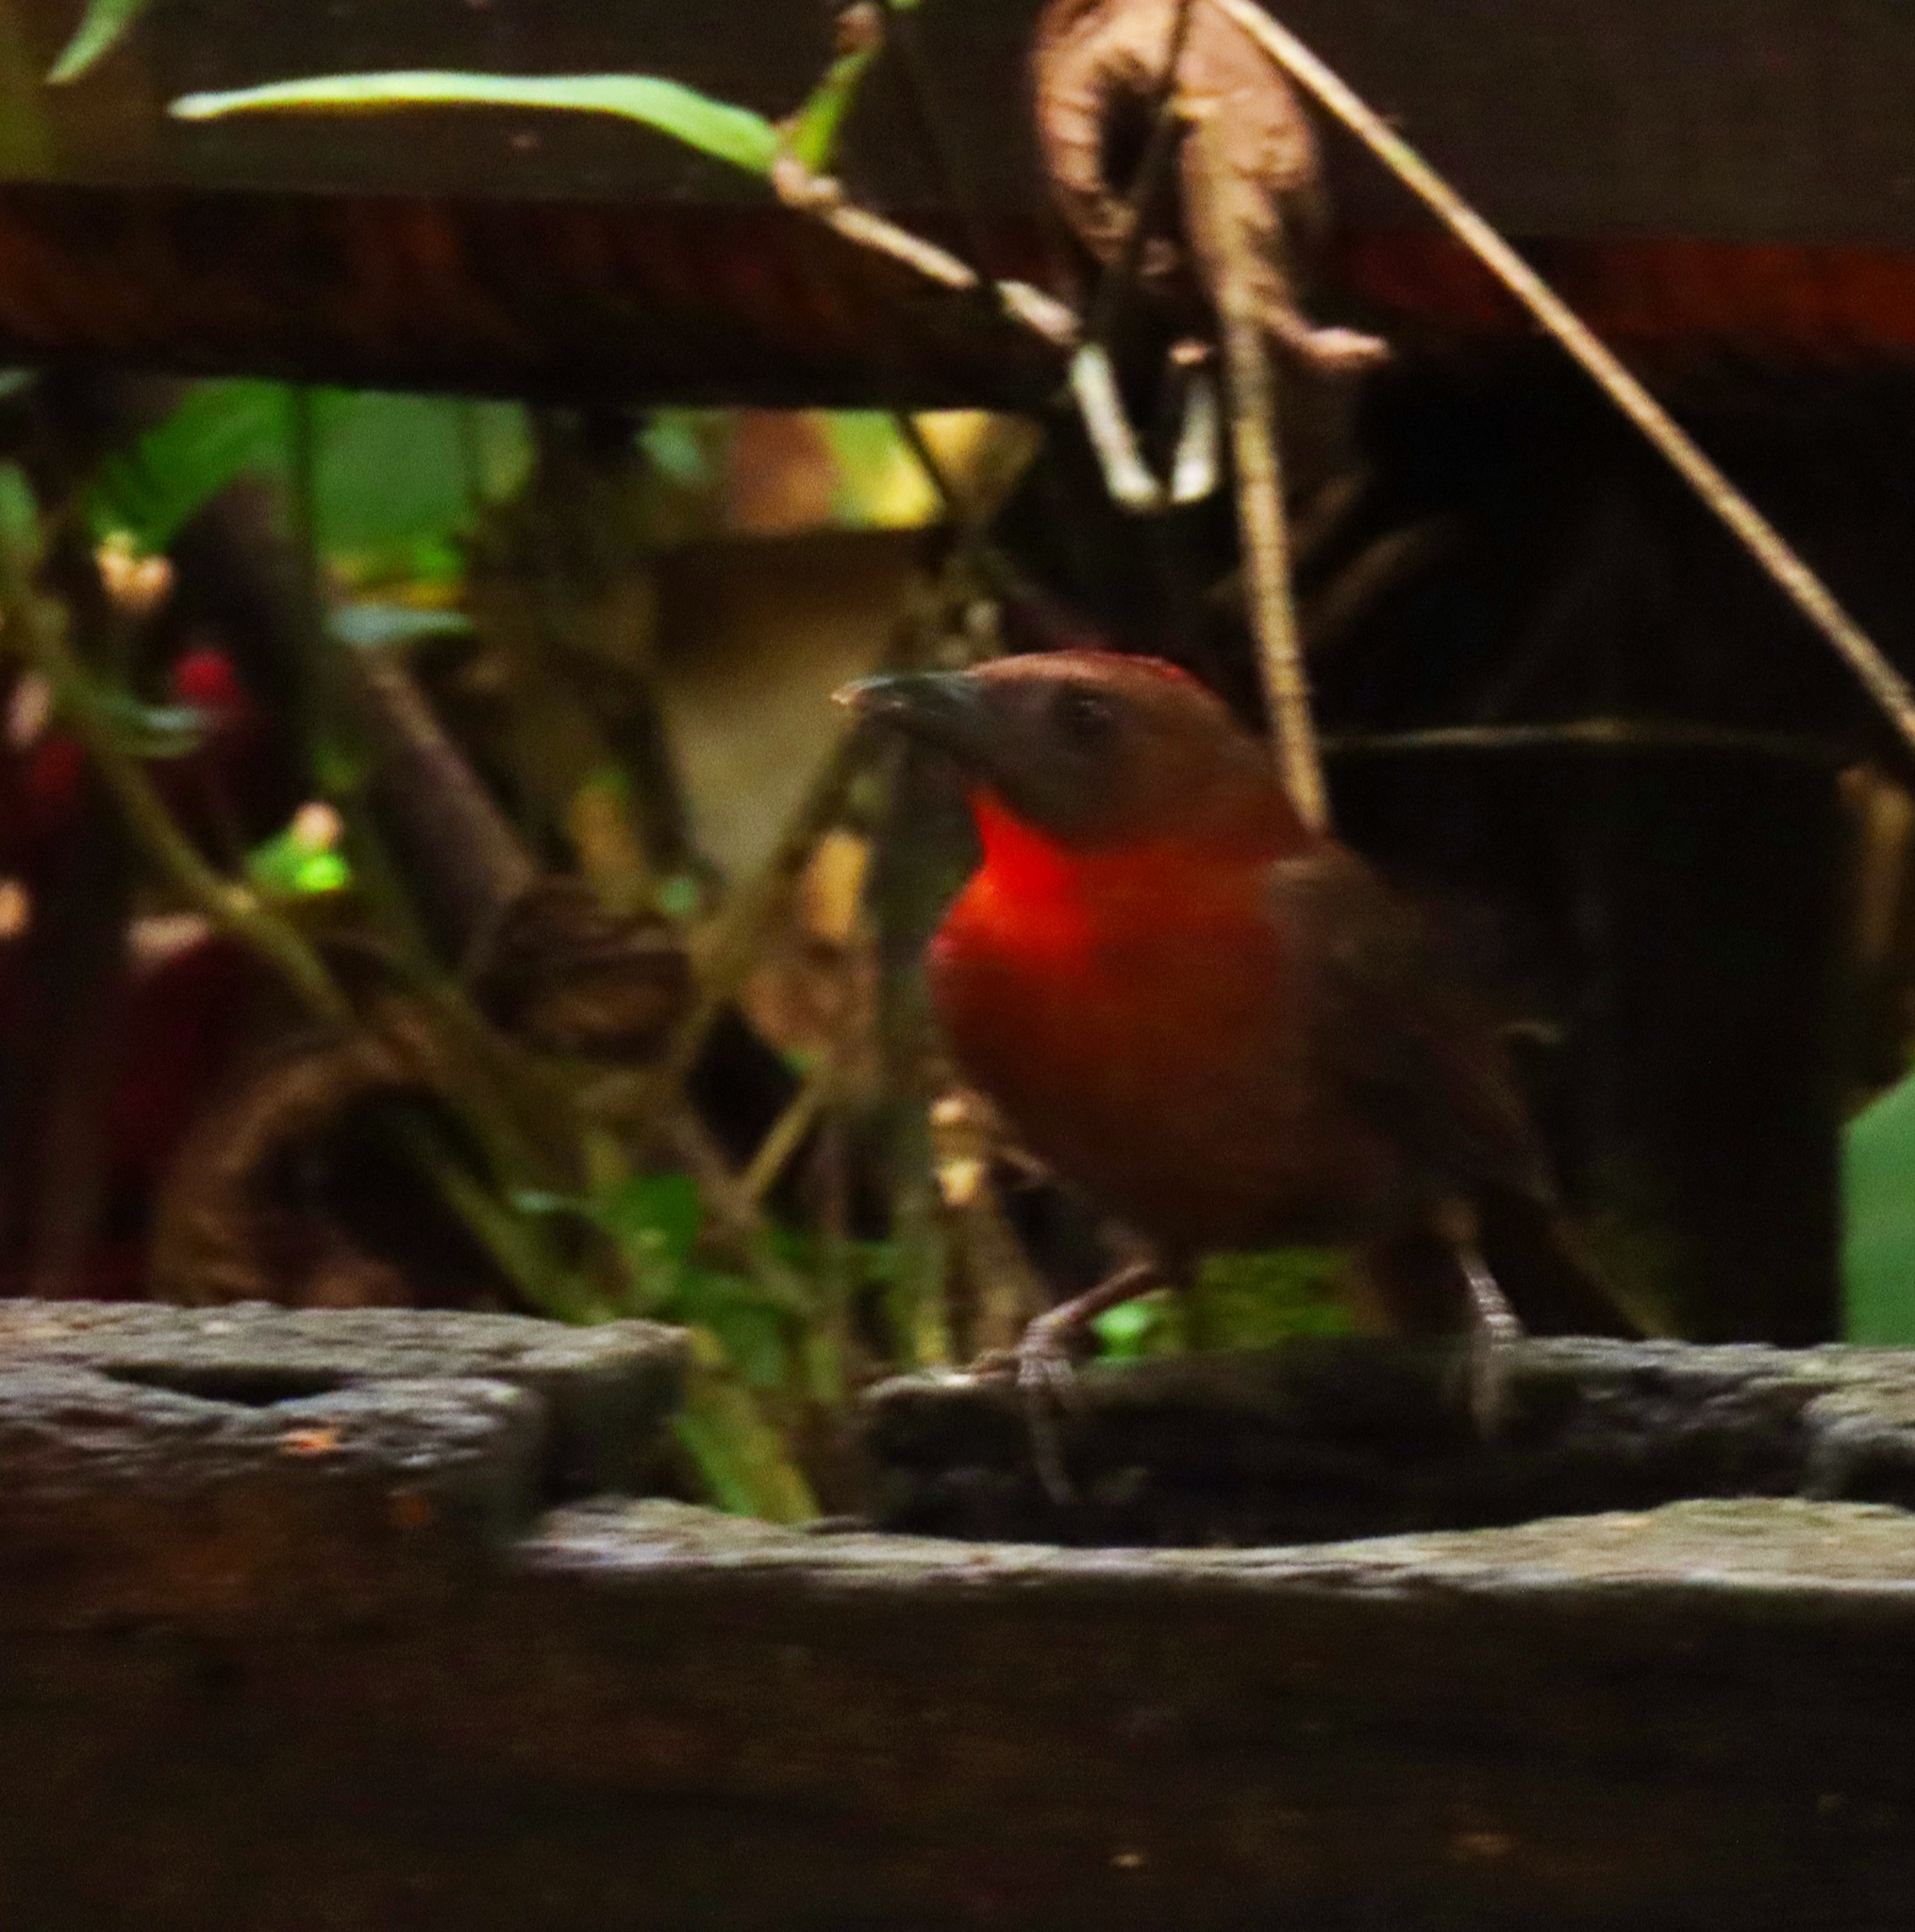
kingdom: Animalia
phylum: Chordata
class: Aves
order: Passeriformes
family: Cardinalidae
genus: Habia
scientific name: Habia fuscicauda
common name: Red-throated ant-tanager
